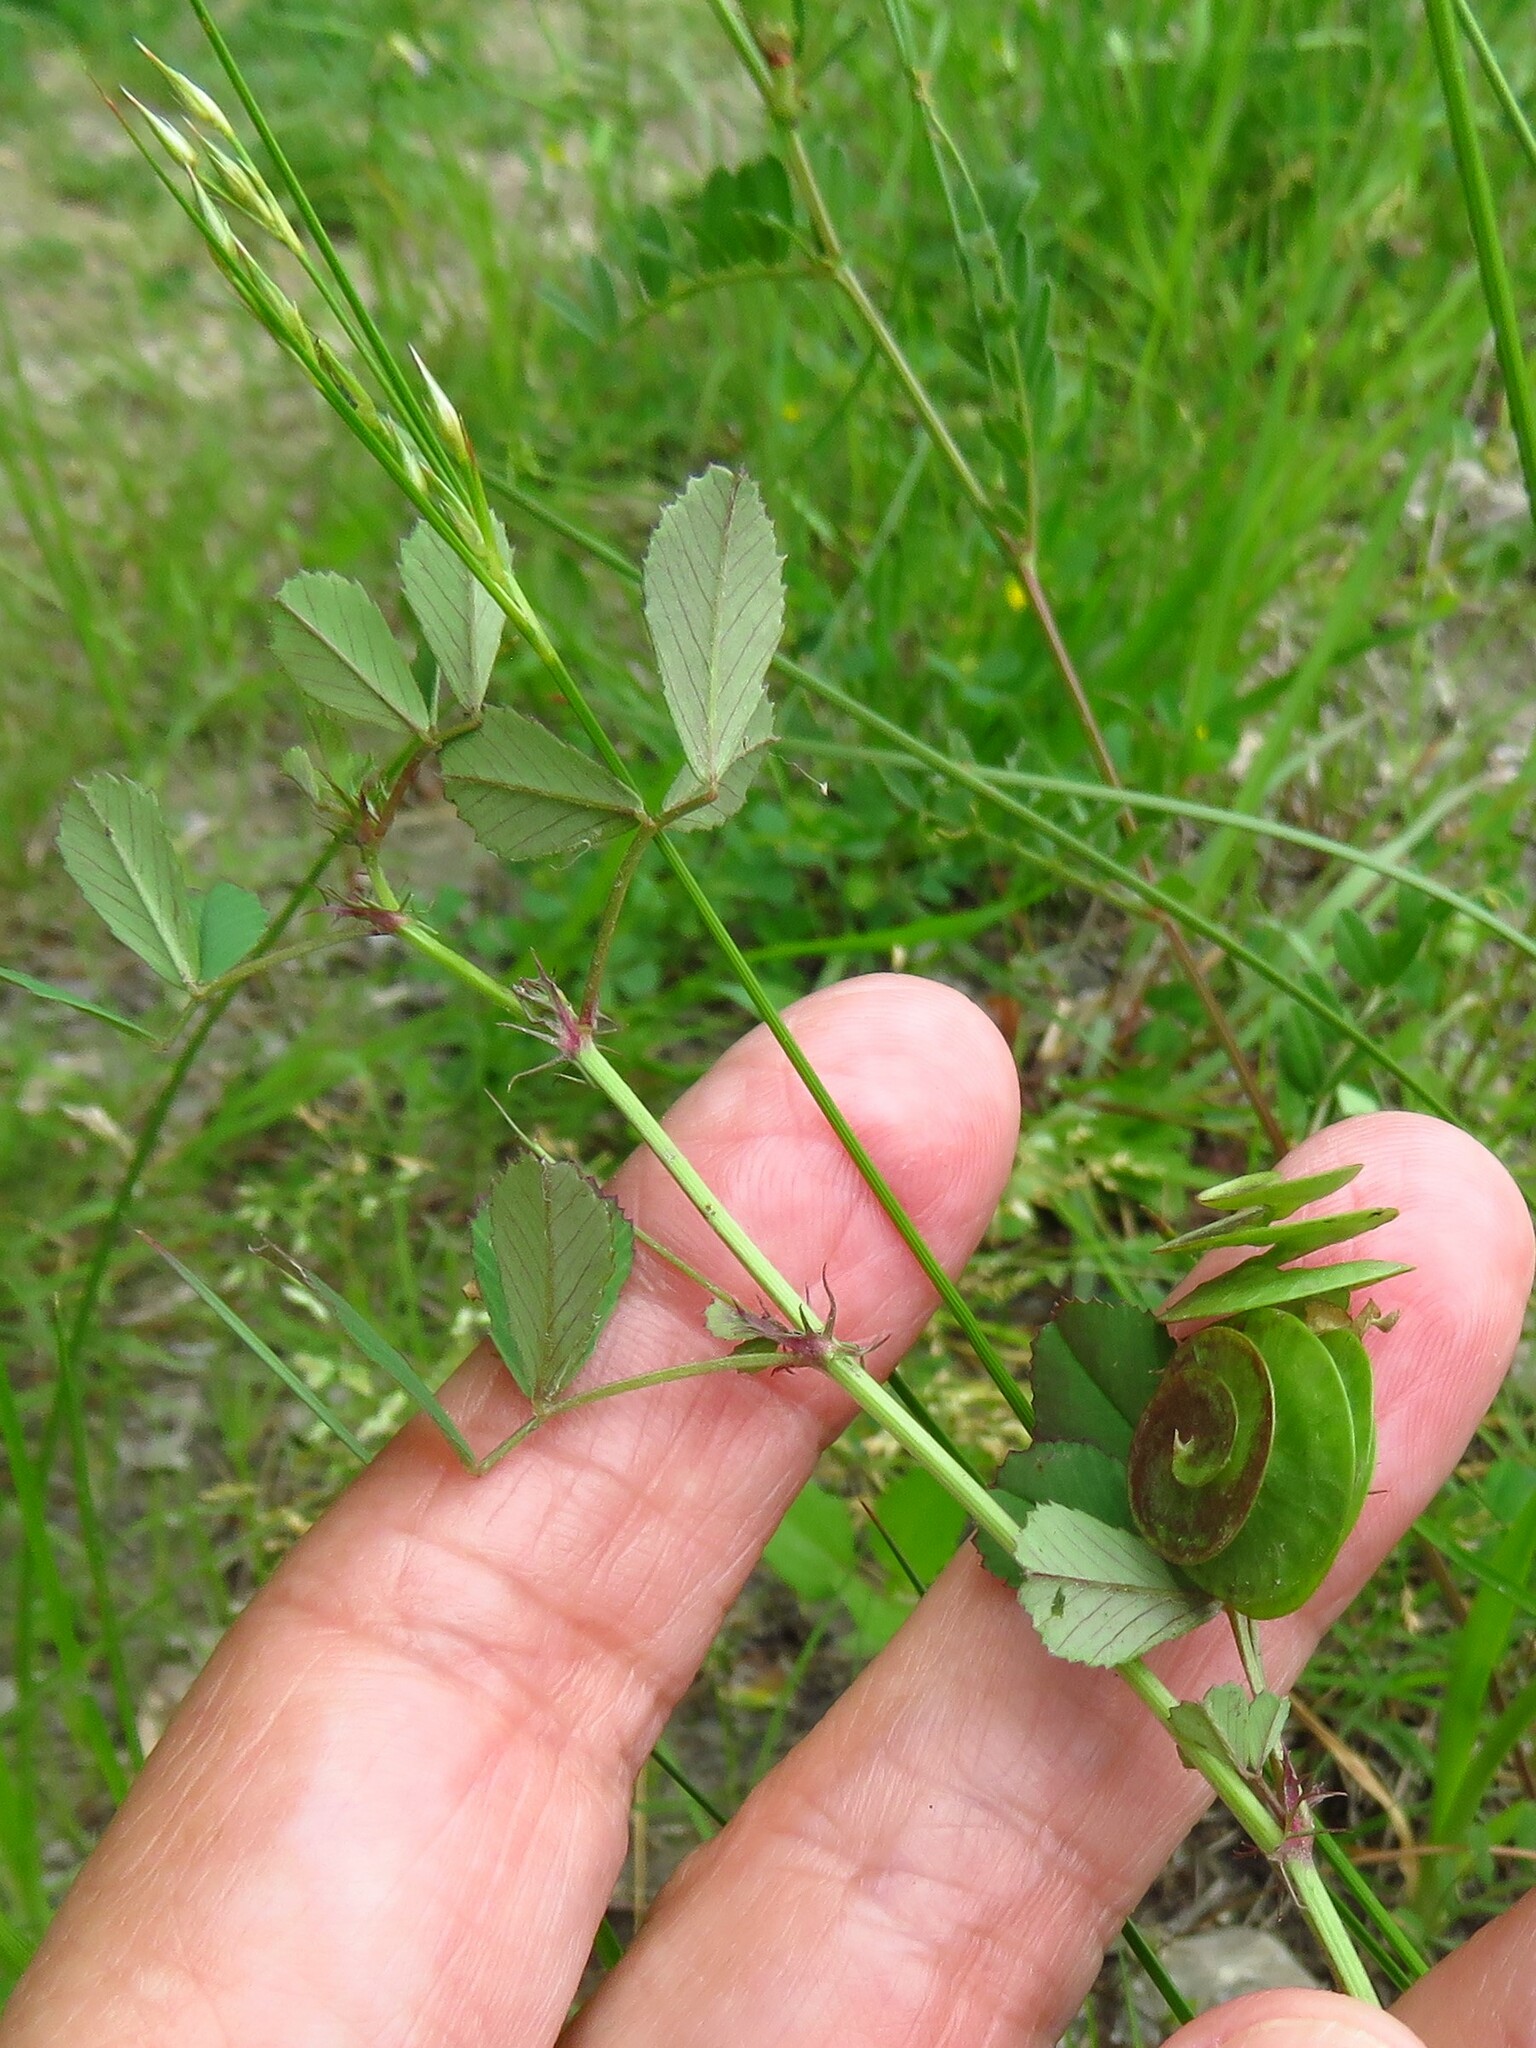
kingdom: Plantae
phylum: Tracheophyta
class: Magnoliopsida
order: Fabales
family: Fabaceae
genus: Medicago
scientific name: Medicago orbicularis
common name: Button medick
